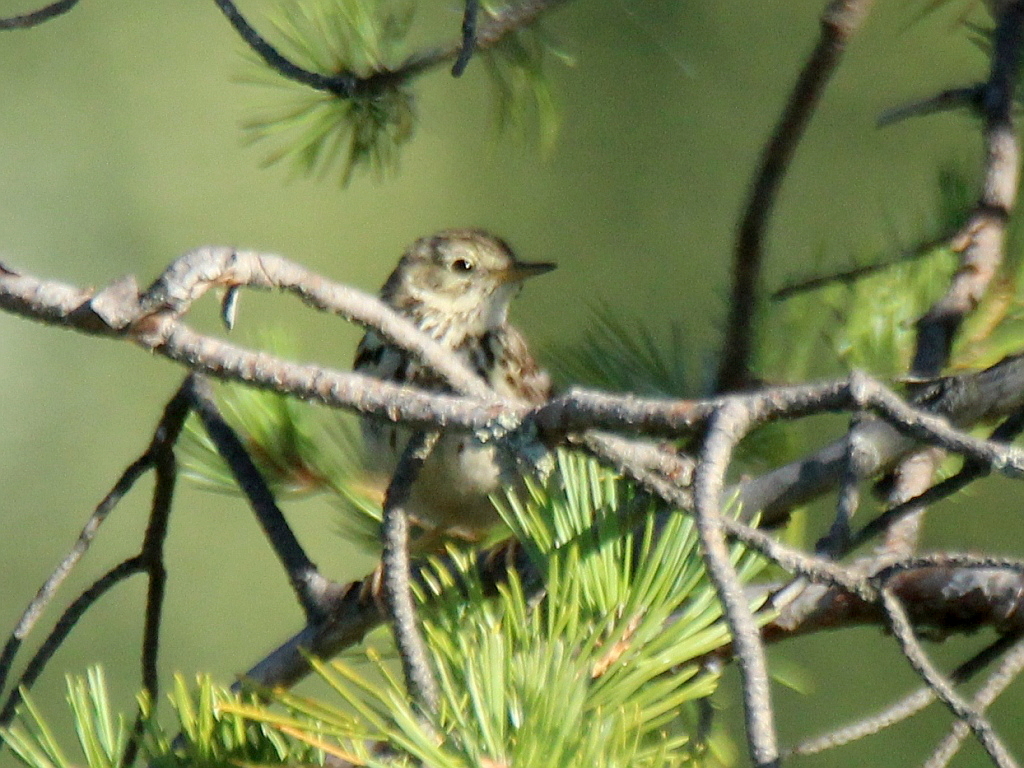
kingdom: Animalia
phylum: Chordata
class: Aves
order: Passeriformes
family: Motacillidae
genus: Anthus
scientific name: Anthus cervinus
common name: Red-throated pipit
